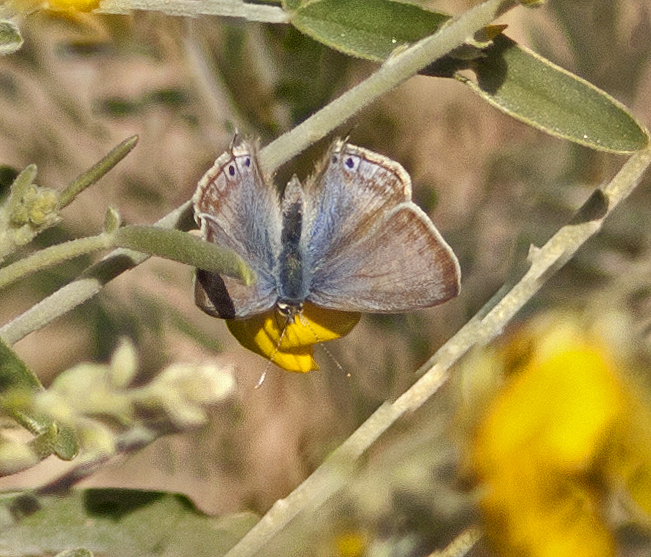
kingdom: Animalia
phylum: Arthropoda
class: Insecta
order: Lepidoptera
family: Lycaenidae
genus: Lampides
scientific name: Lampides boeticus
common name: Long-tailed blue
